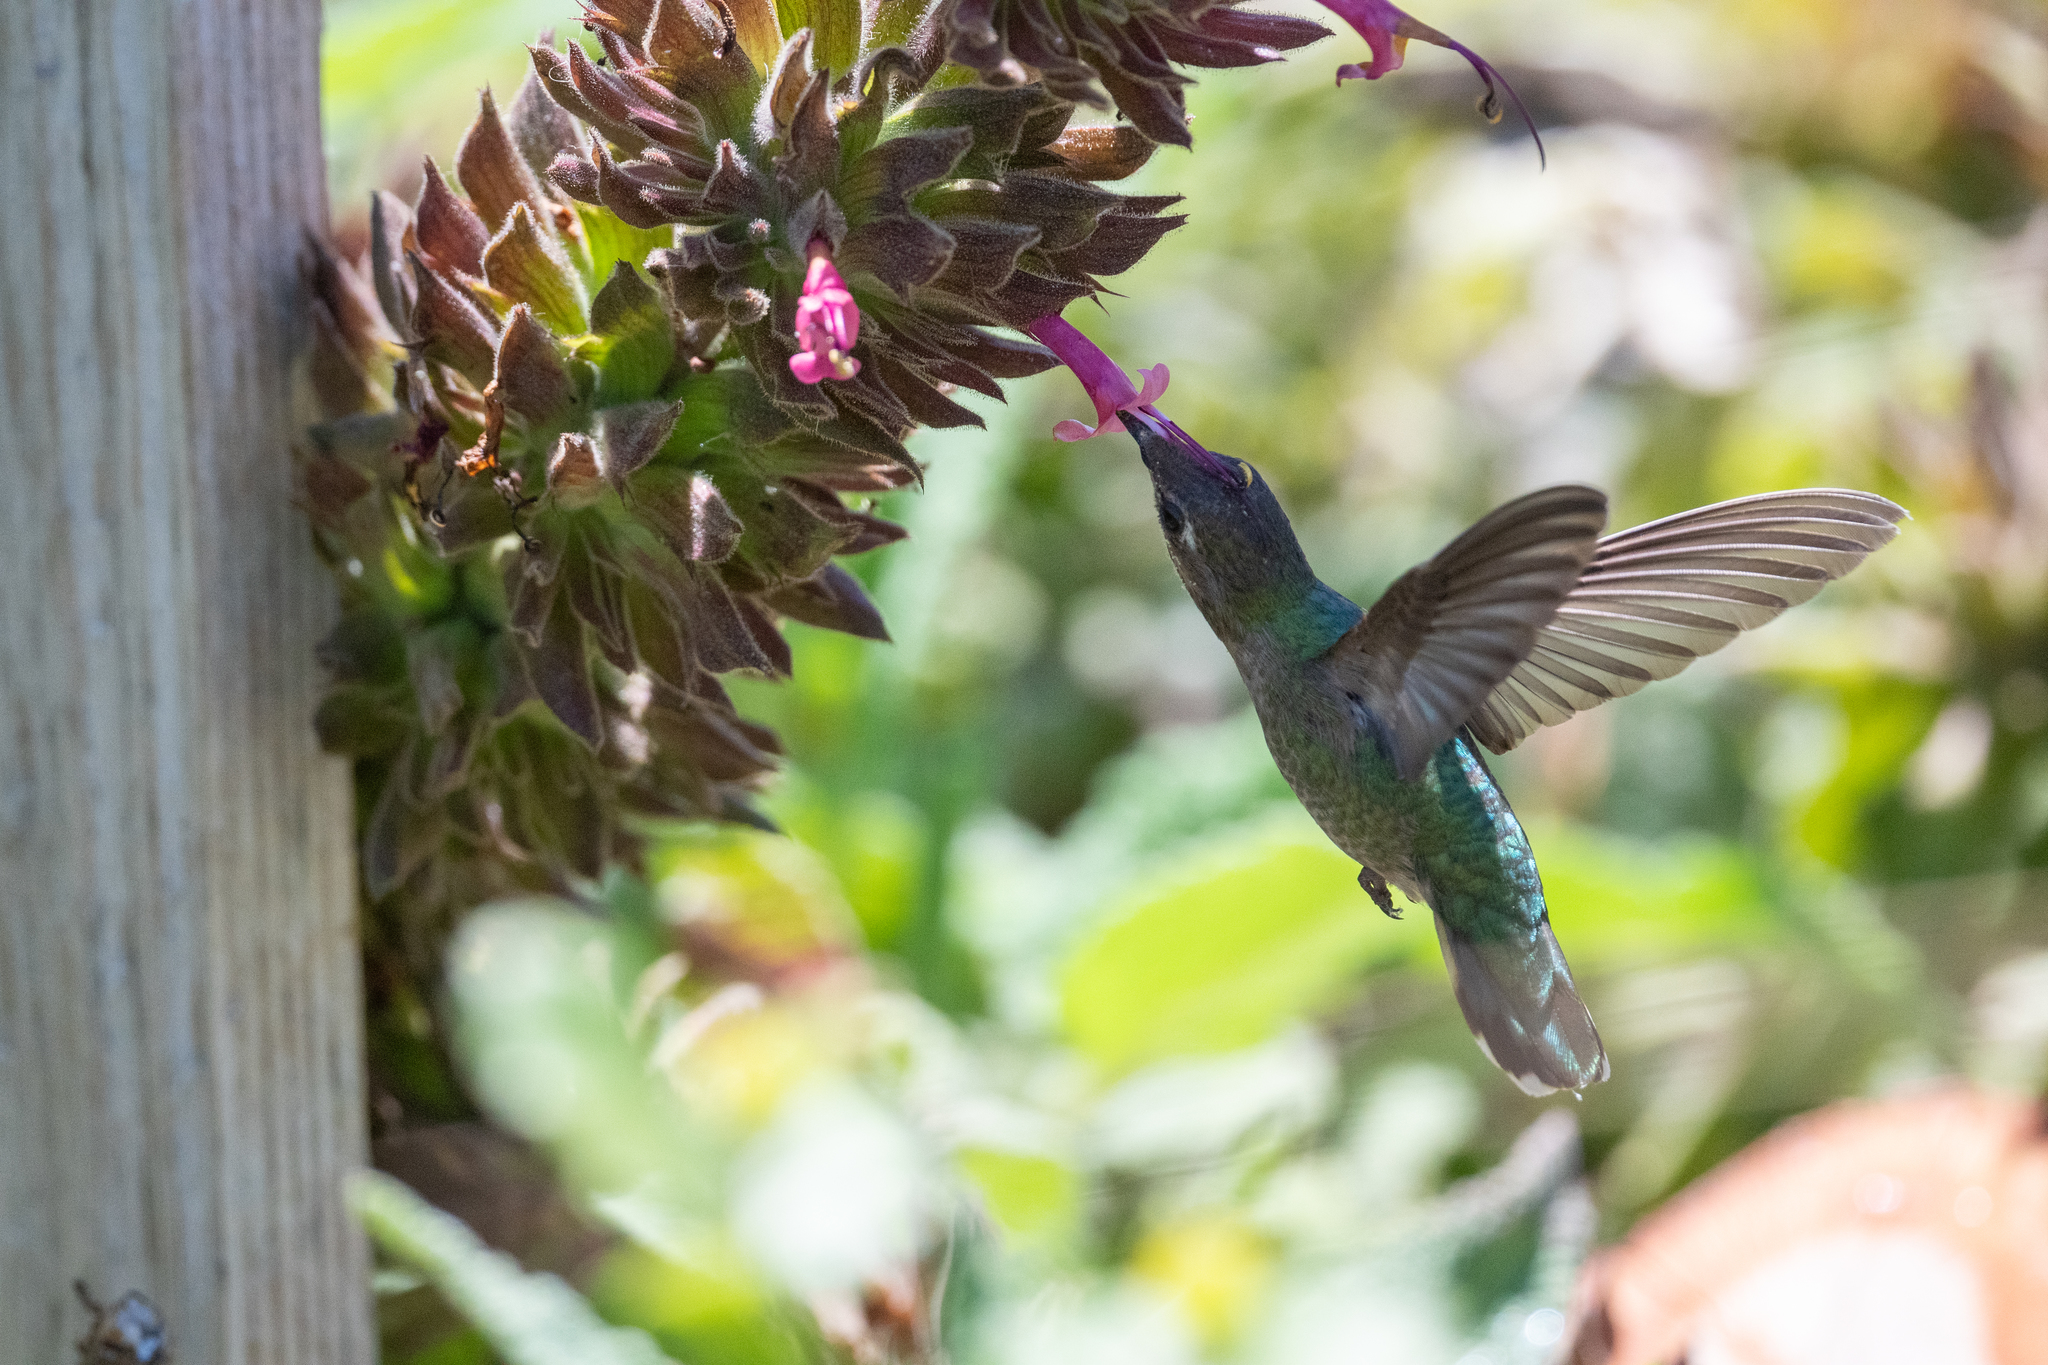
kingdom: Animalia
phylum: Chordata
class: Aves
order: Apodiformes
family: Trochilidae
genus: Calypte
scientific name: Calypte anna
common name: Anna's hummingbird
